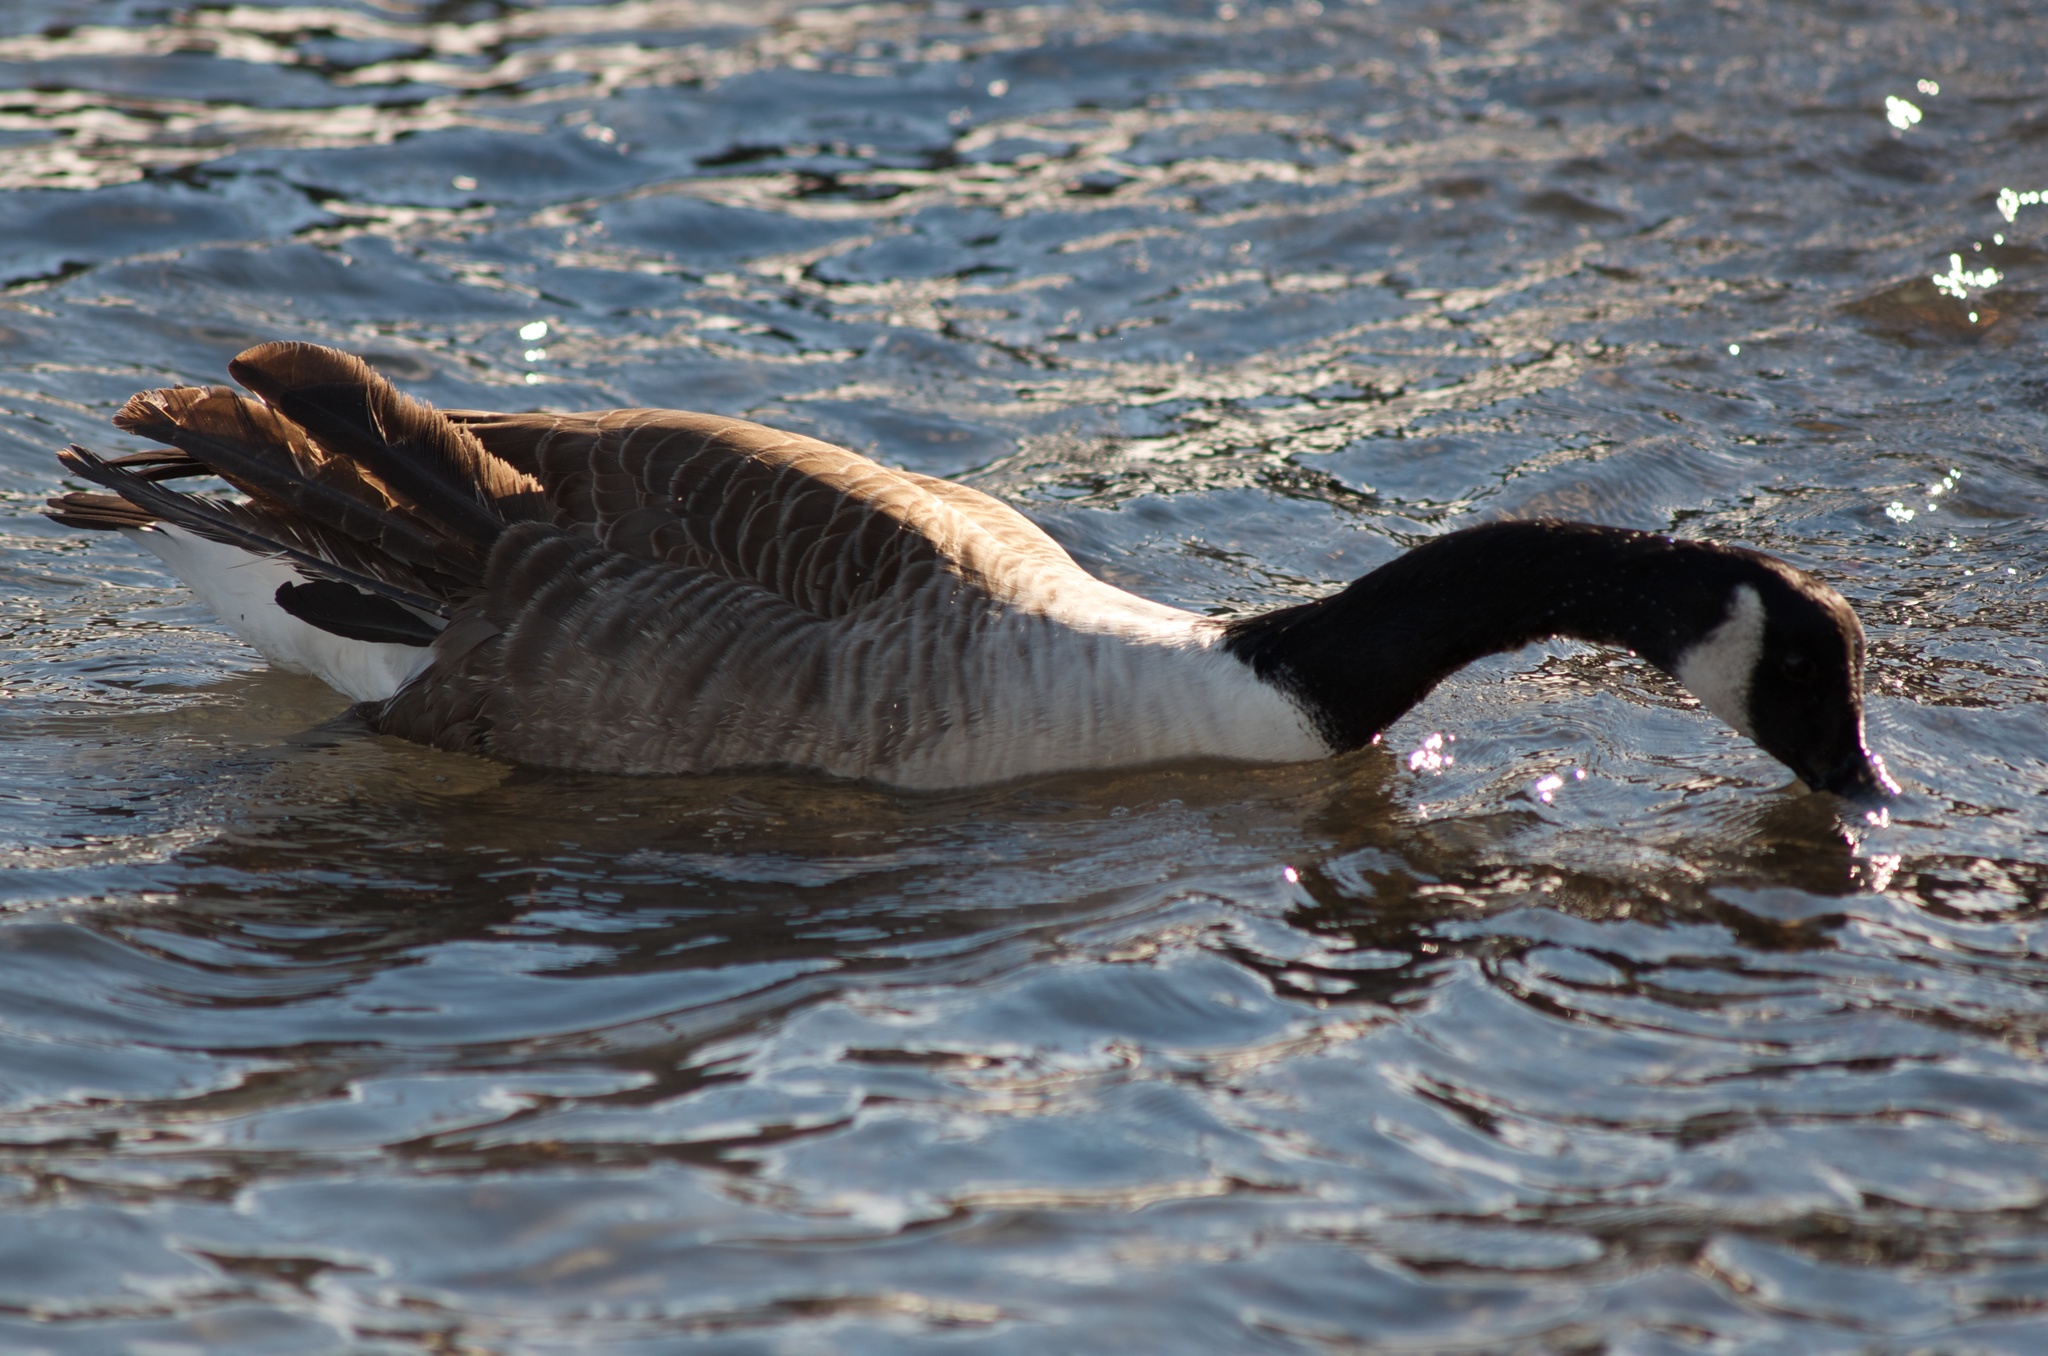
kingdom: Animalia
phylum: Chordata
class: Aves
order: Anseriformes
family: Anatidae
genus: Branta
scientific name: Branta canadensis
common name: Canada goose
